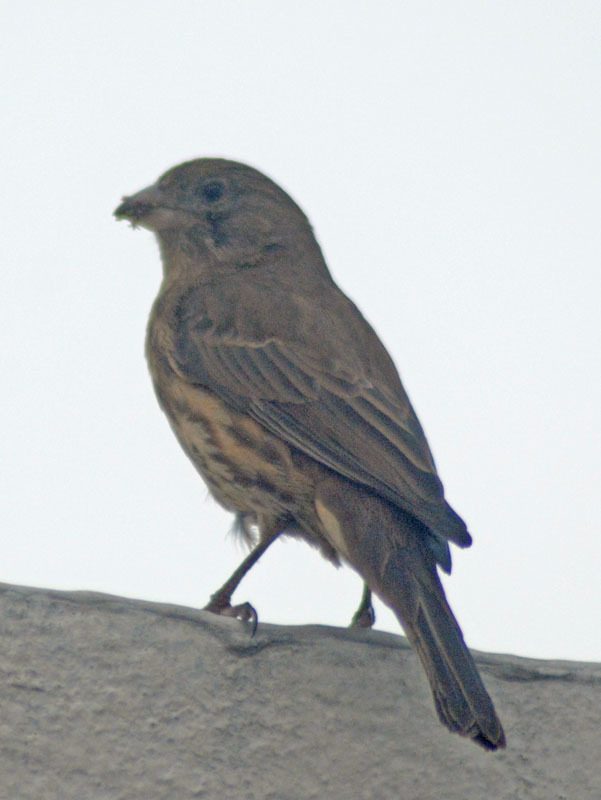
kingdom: Animalia
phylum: Chordata
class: Aves
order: Passeriformes
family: Fringillidae
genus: Haemorhous
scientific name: Haemorhous mexicanus
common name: House finch
